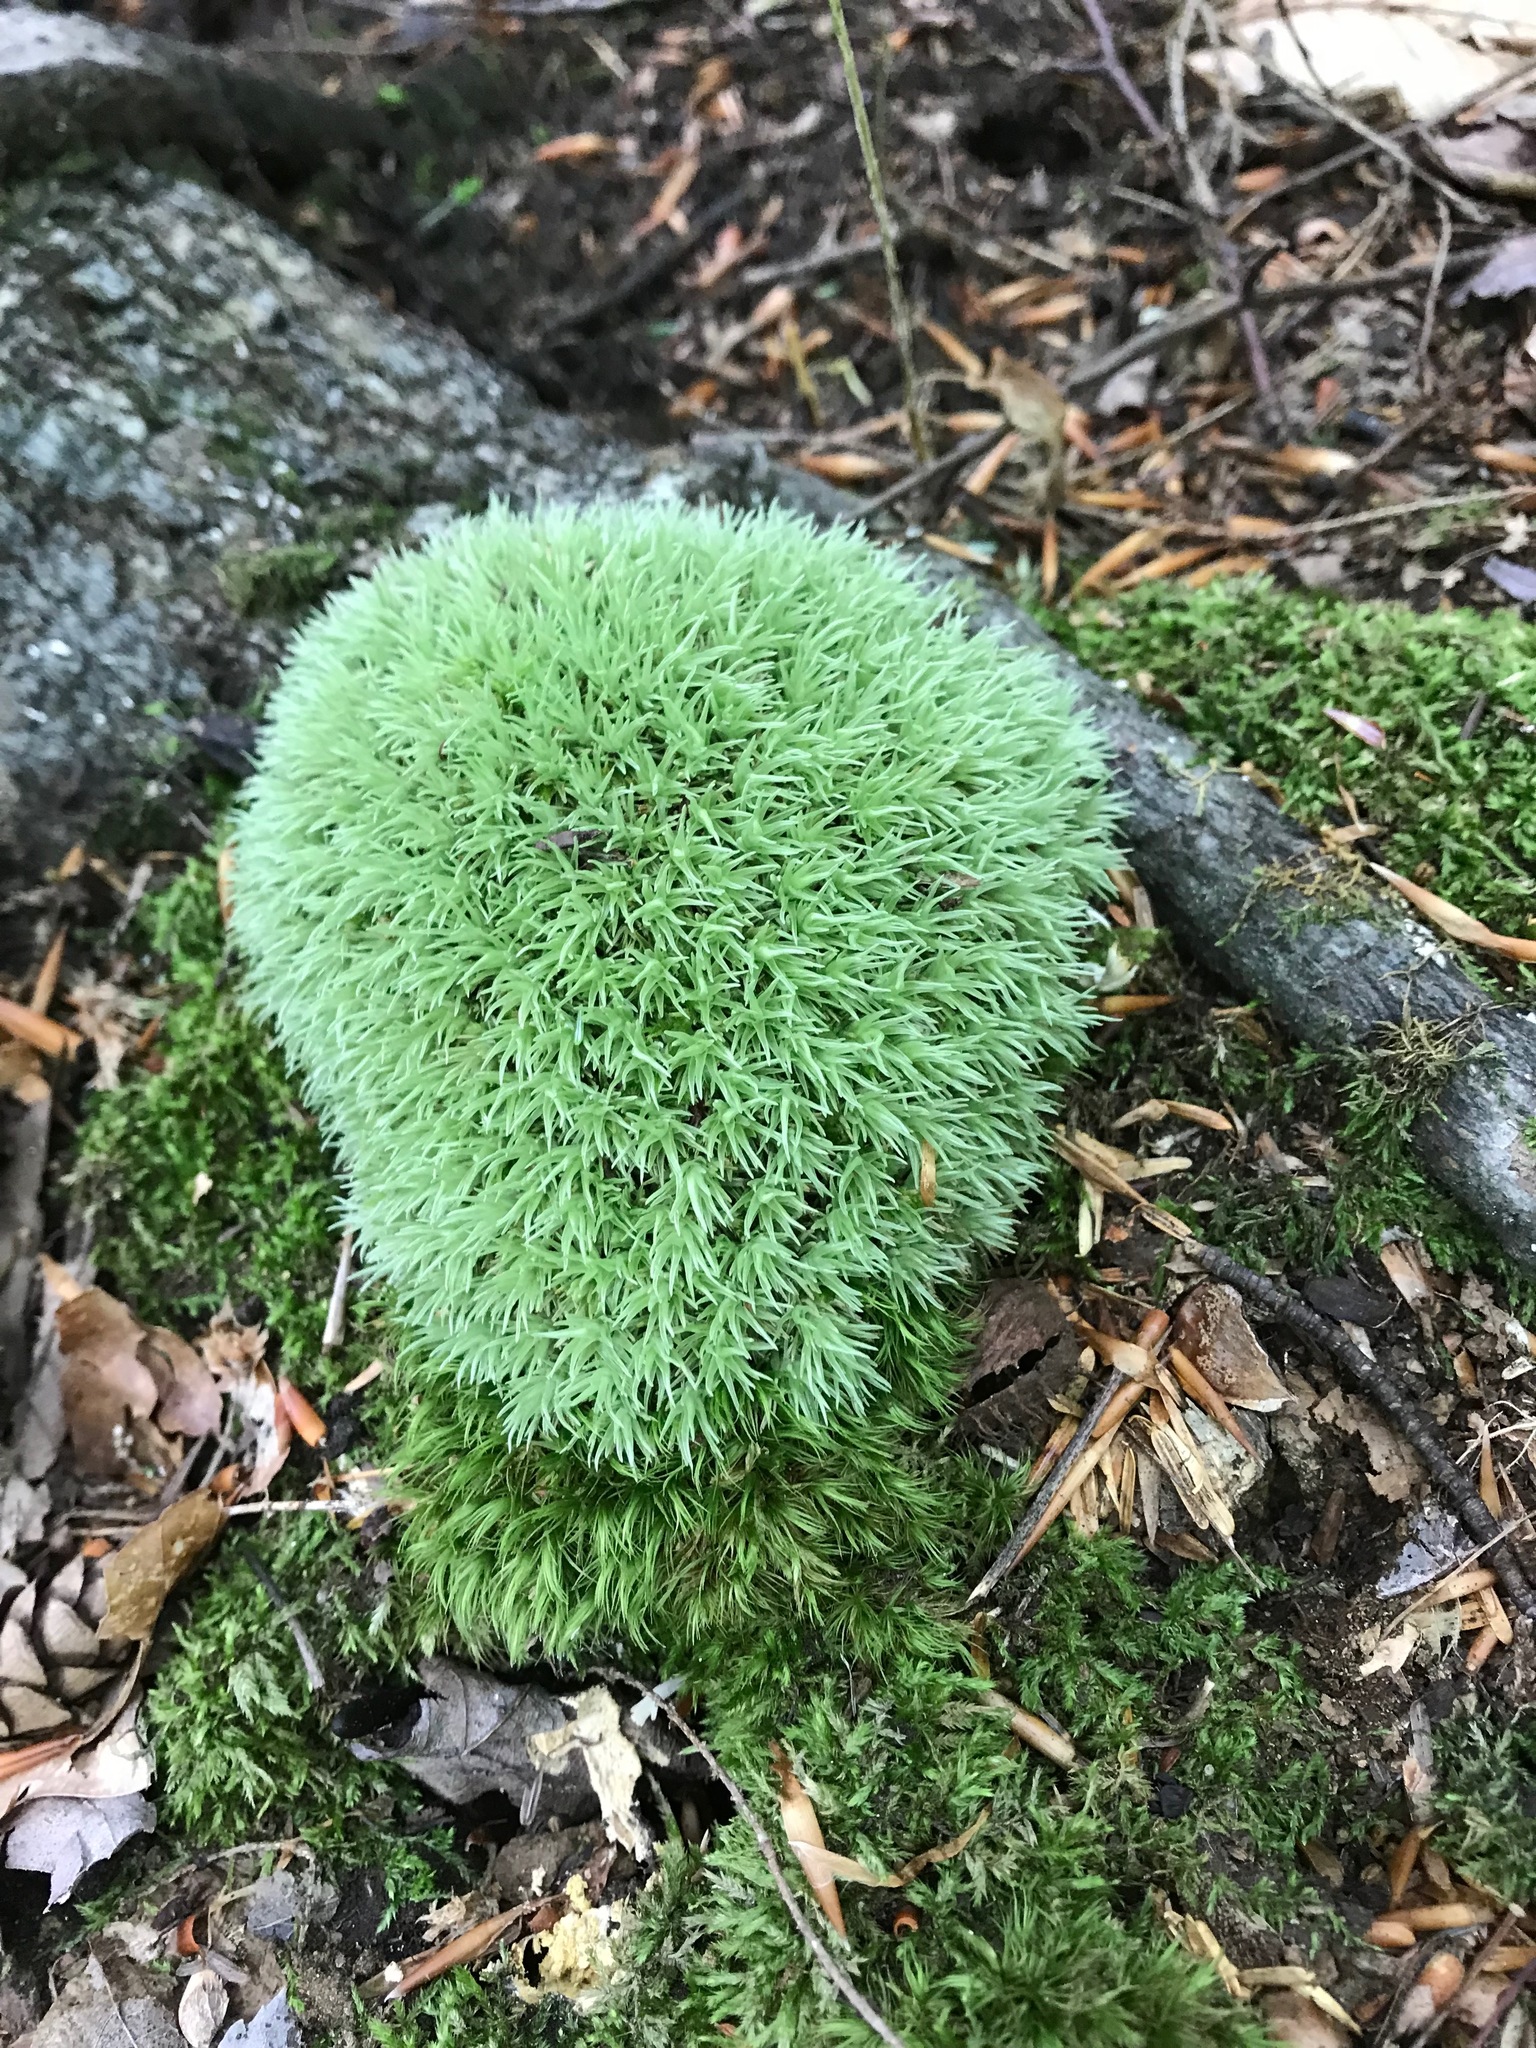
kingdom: Plantae
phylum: Bryophyta
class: Bryopsida
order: Dicranales
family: Leucobryaceae
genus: Leucobryum
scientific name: Leucobryum glaucum
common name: Large white-moss
